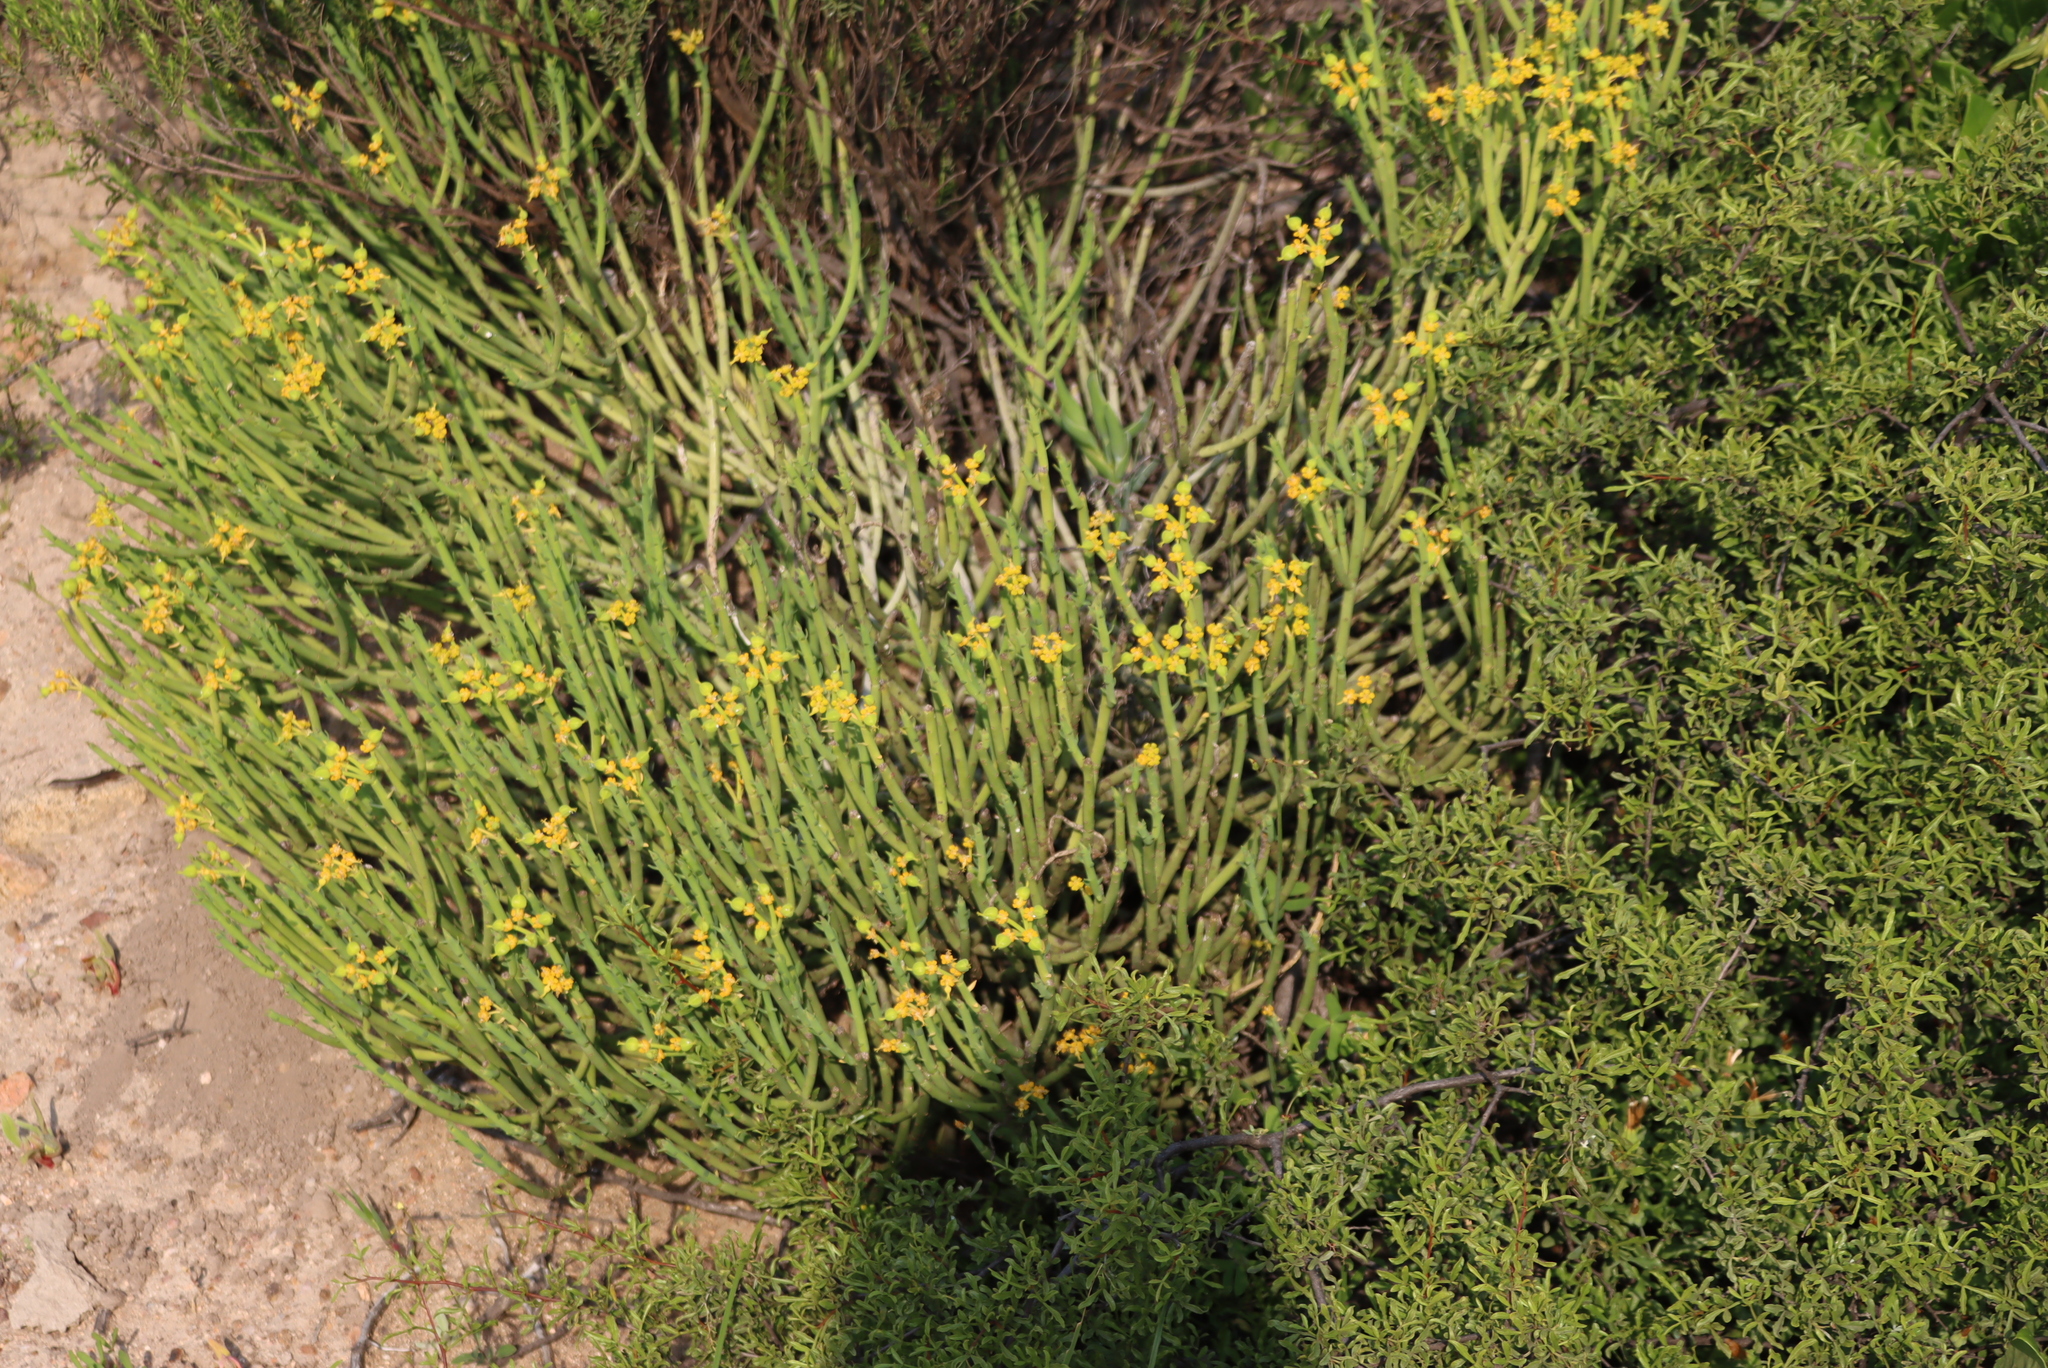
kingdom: Plantae
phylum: Tracheophyta
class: Magnoliopsida
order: Malpighiales
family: Euphorbiaceae
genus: Euphorbia
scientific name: Euphorbia mauritanica
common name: Jackal's-food
